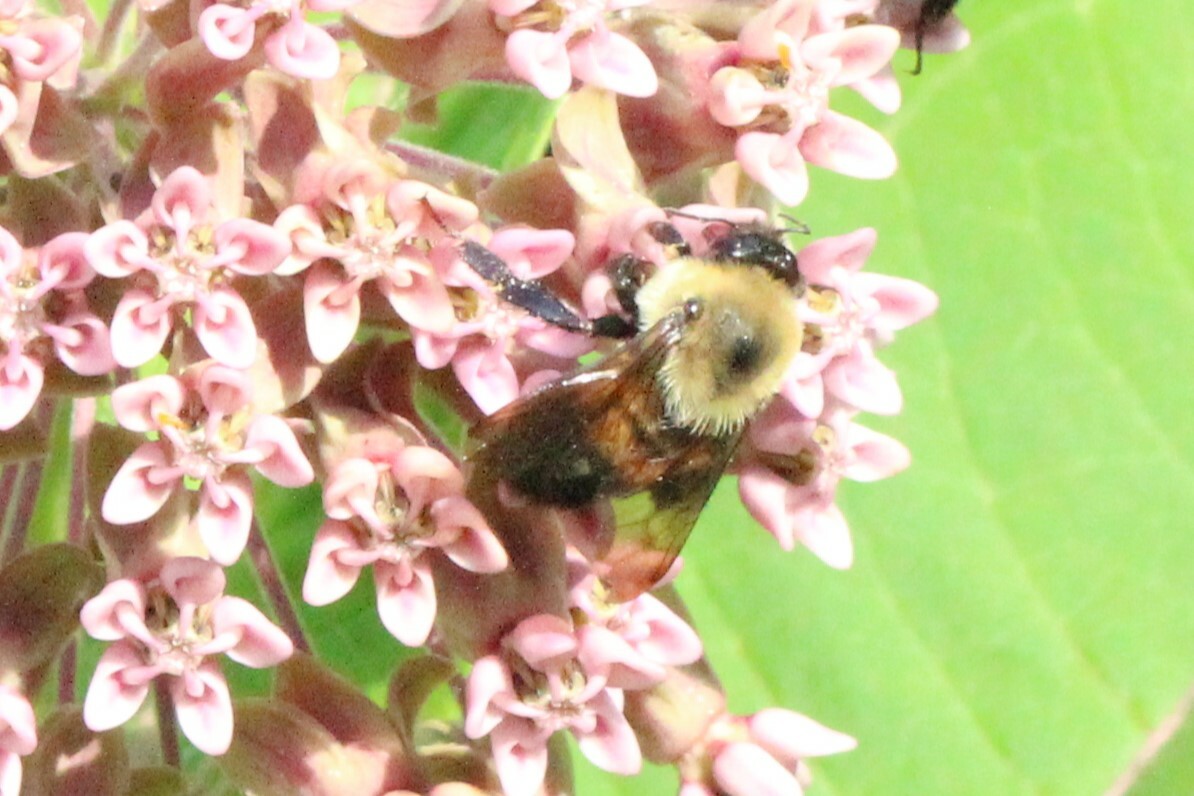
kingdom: Animalia
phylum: Arthropoda
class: Insecta
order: Hymenoptera
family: Apidae
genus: Bombus
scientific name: Bombus griseocollis
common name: Brown-belted bumble bee
